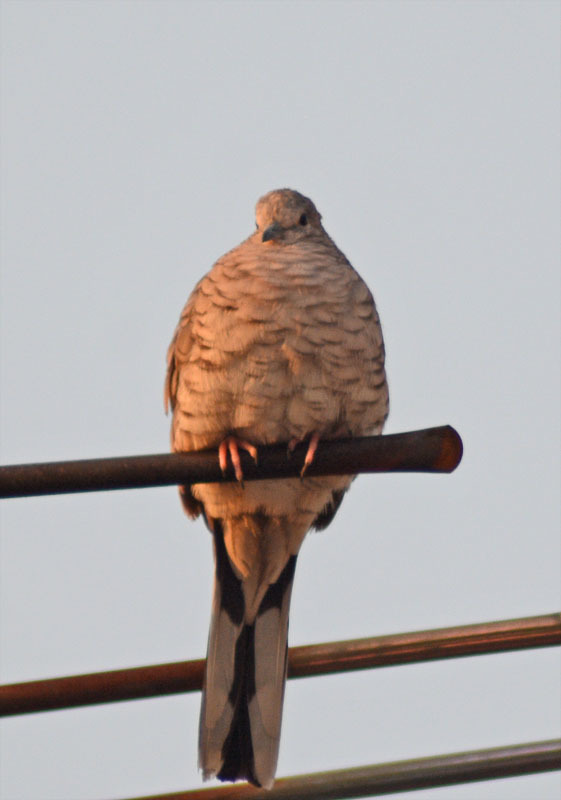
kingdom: Animalia
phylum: Chordata
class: Aves
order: Columbiformes
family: Columbidae
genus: Columbina
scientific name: Columbina inca
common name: Inca dove
